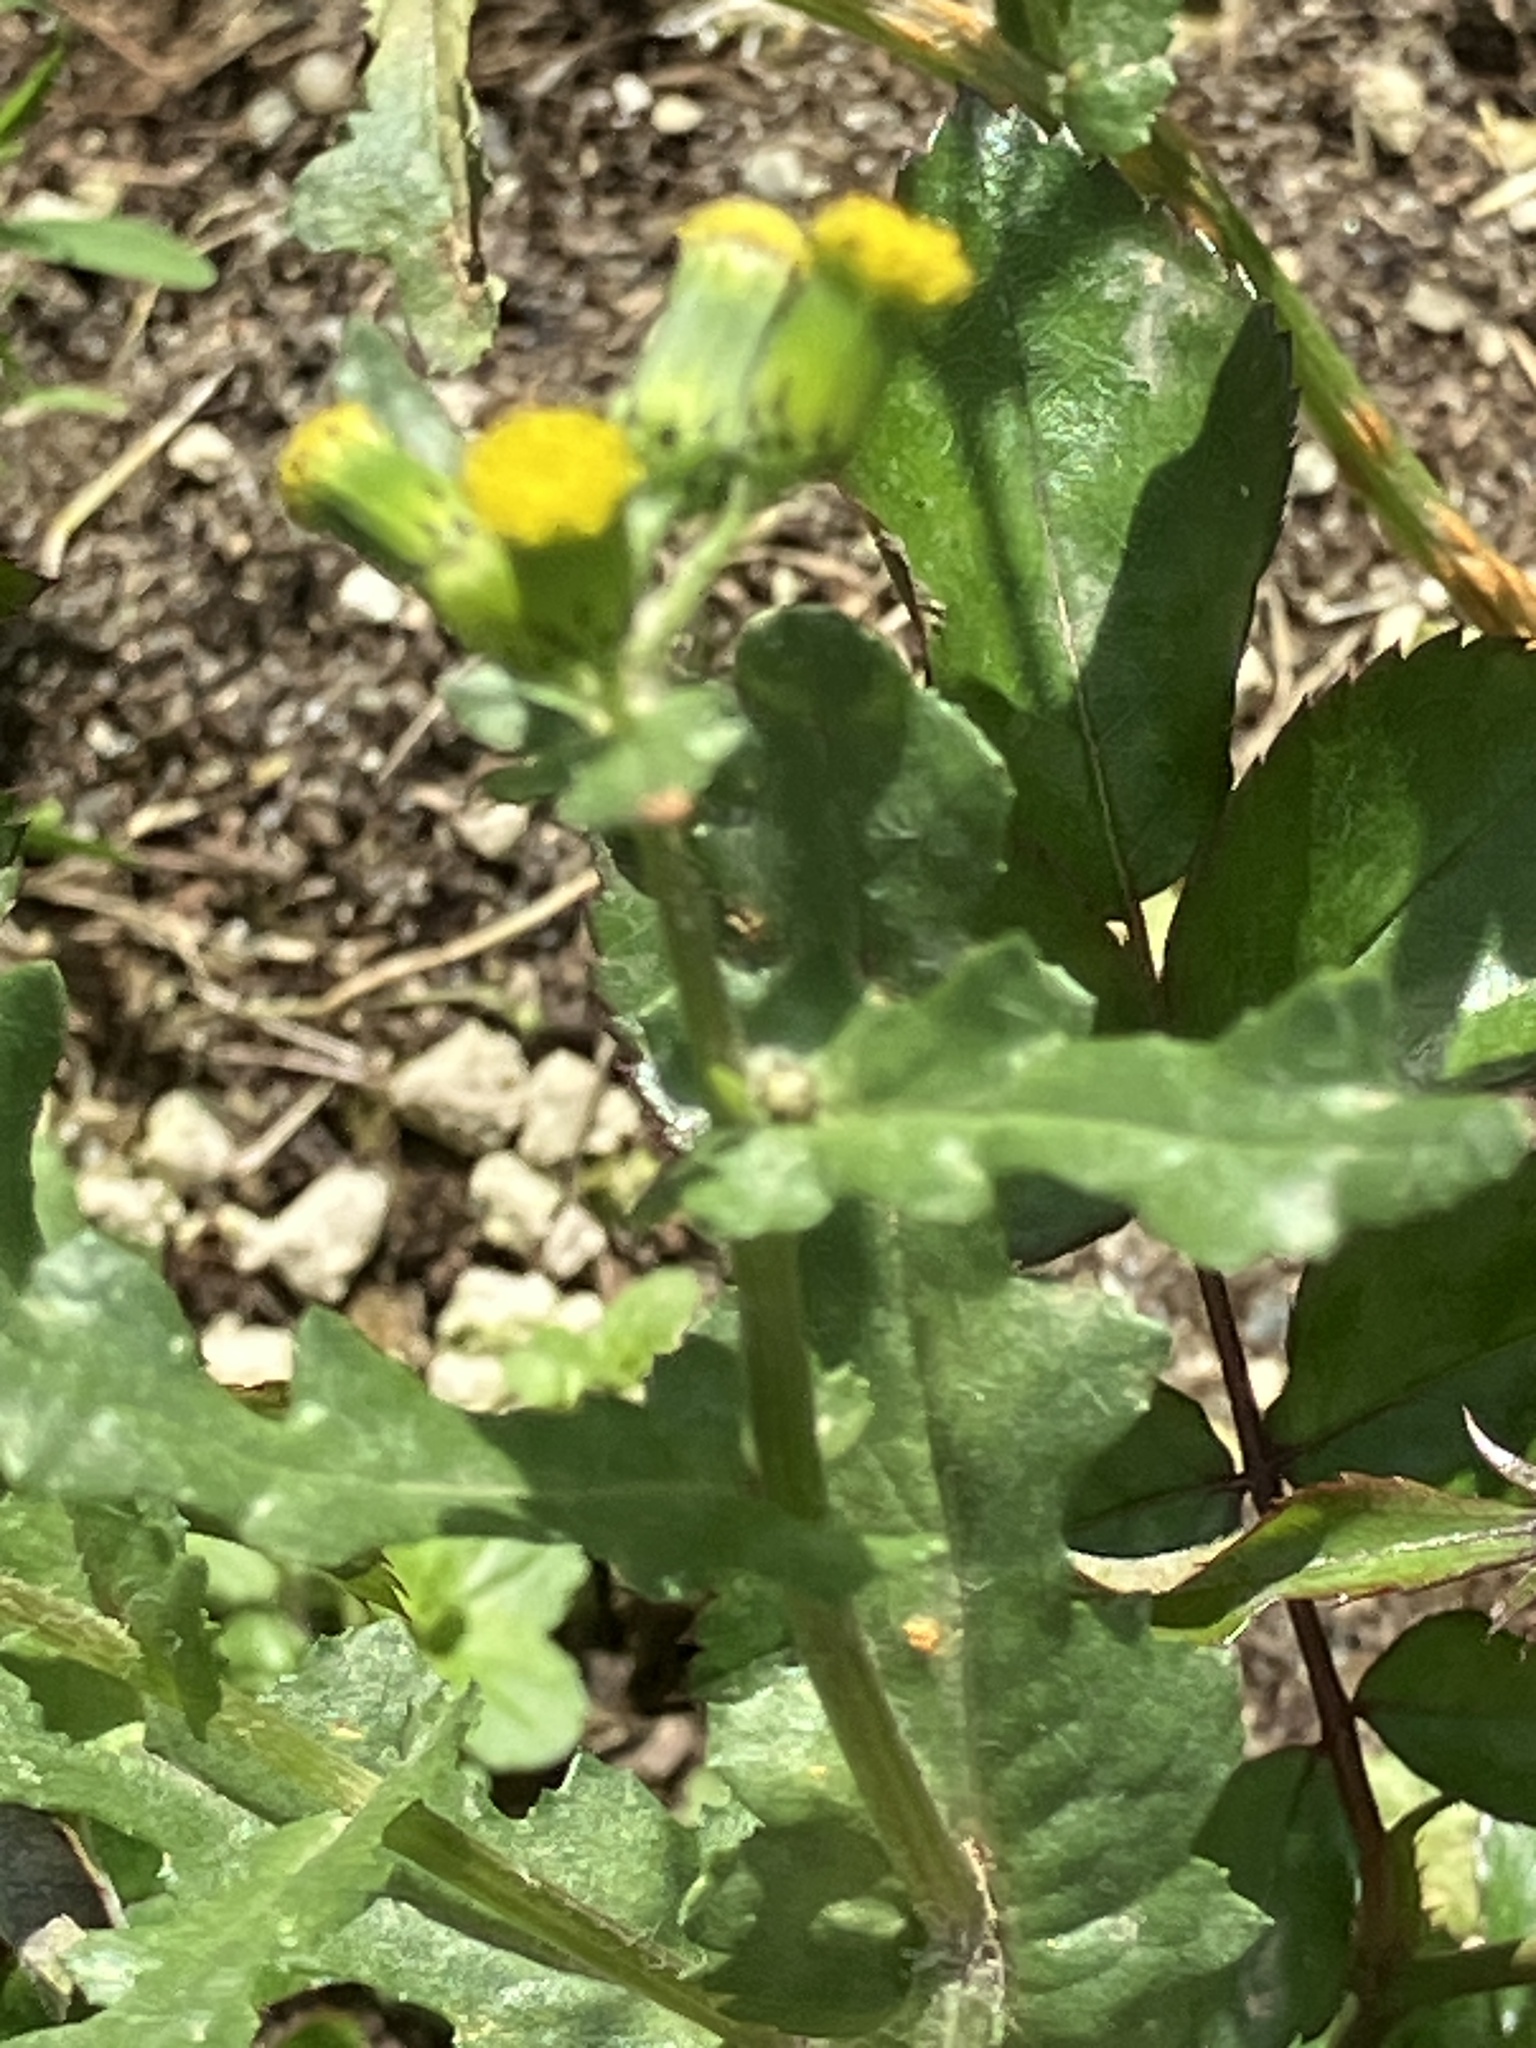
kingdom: Plantae
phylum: Tracheophyta
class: Magnoliopsida
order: Asterales
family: Asteraceae
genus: Senecio
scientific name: Senecio vulgaris
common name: Old-man-in-the-spring
